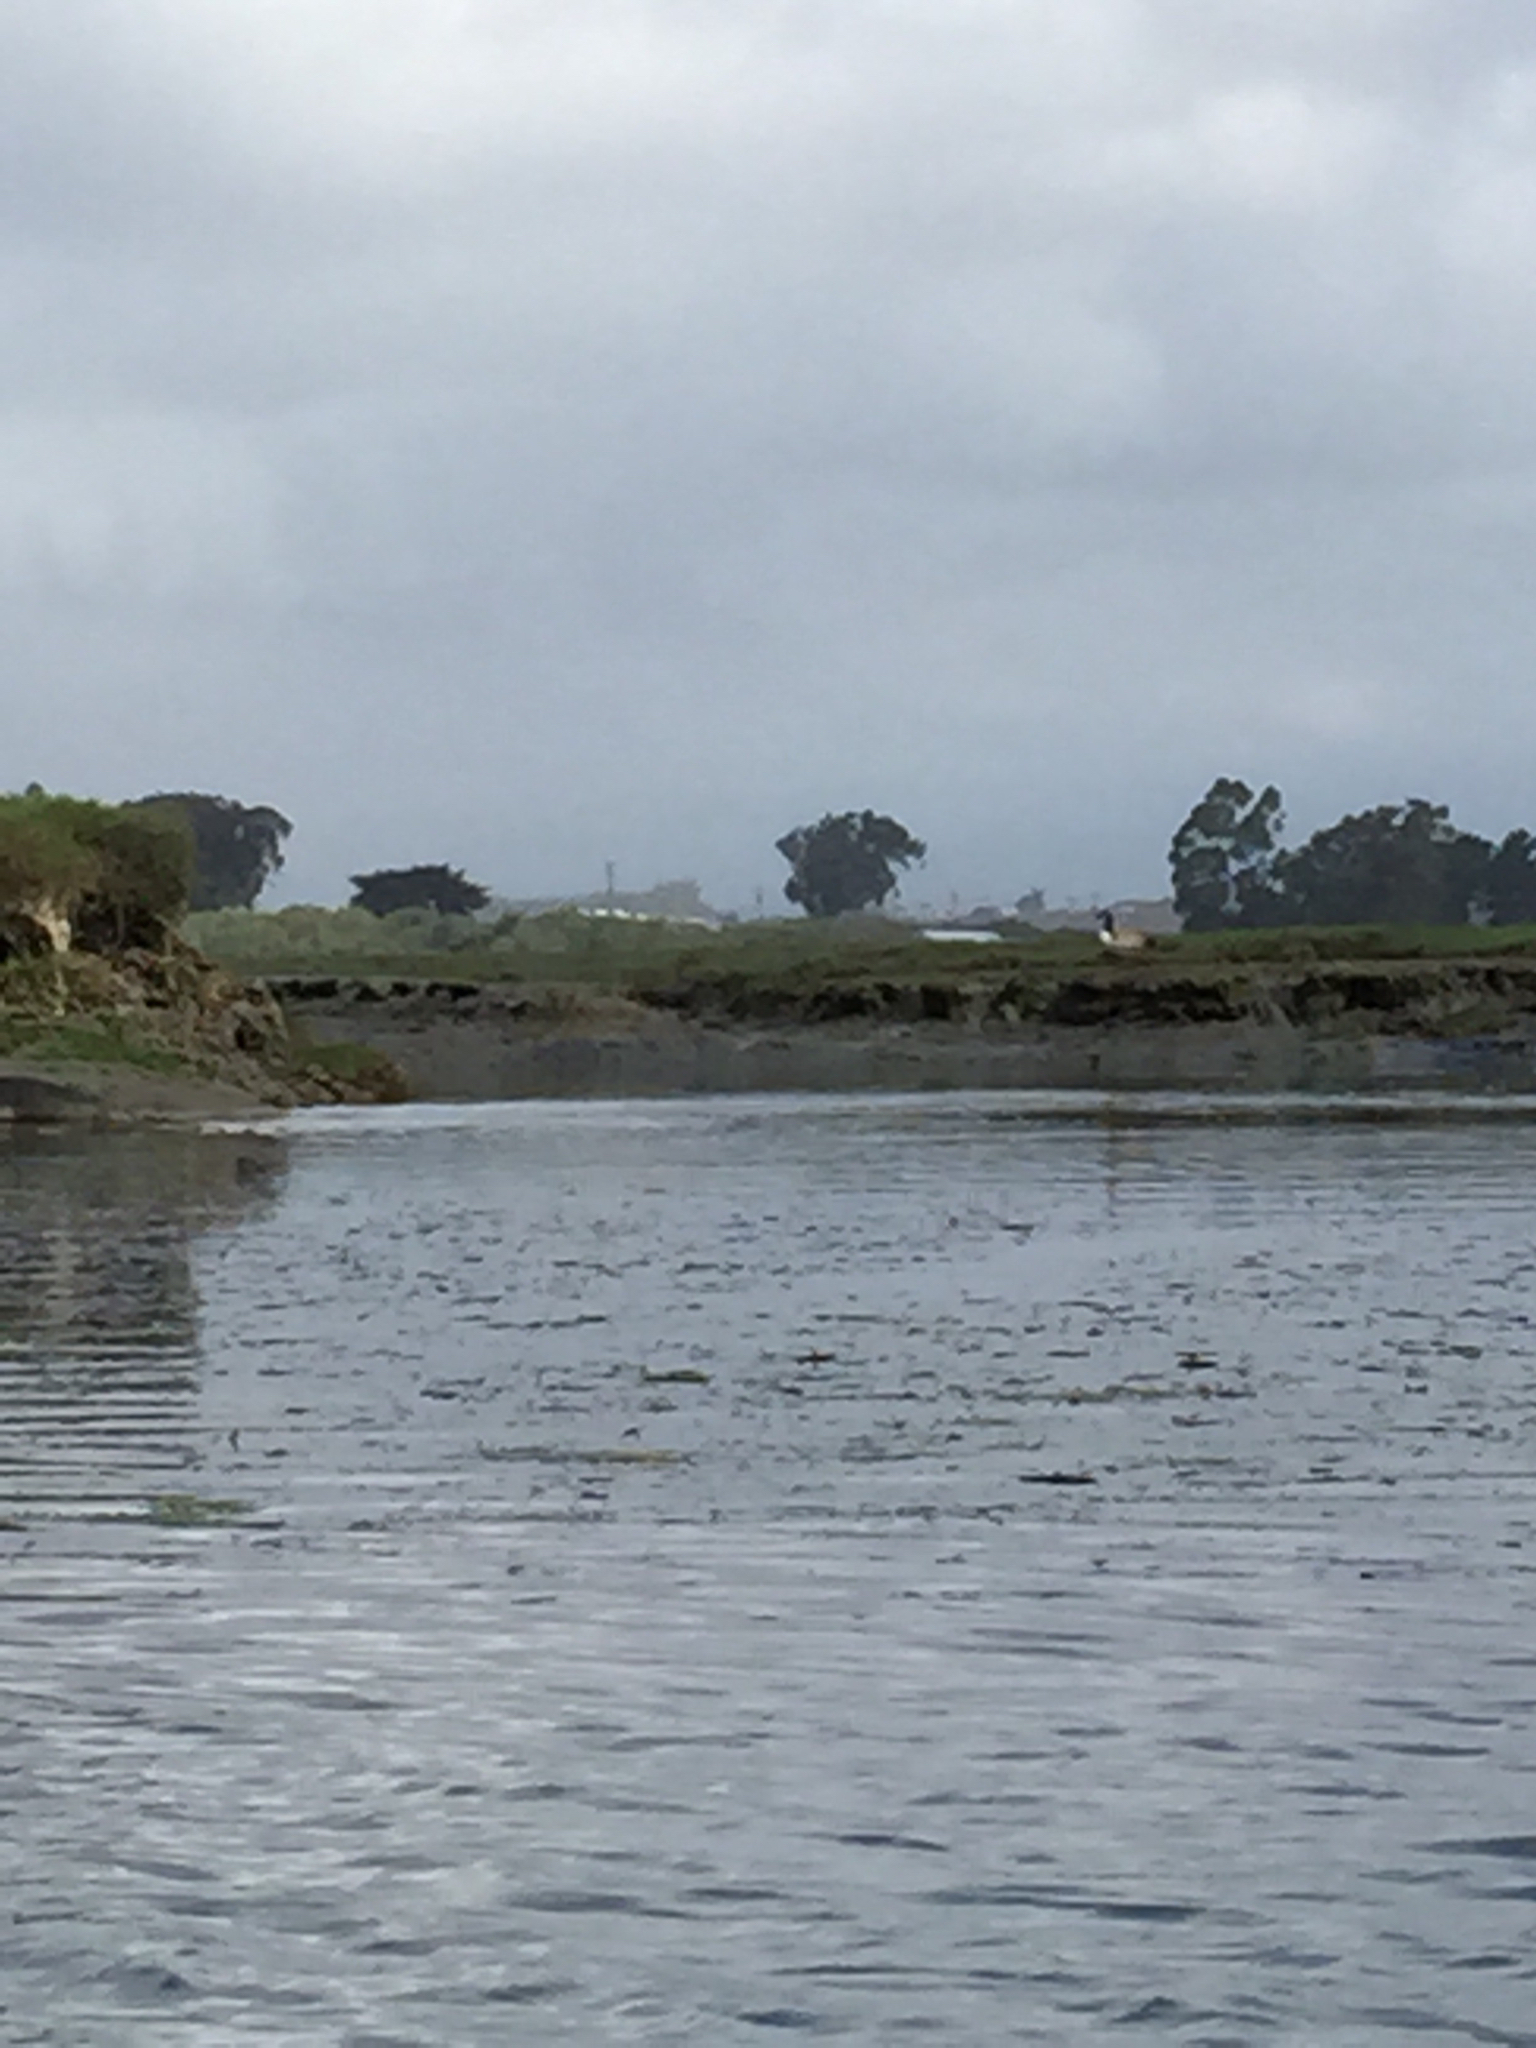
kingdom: Animalia
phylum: Chordata
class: Aves
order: Anseriformes
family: Anatidae
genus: Branta
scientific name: Branta canadensis
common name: Canada goose
